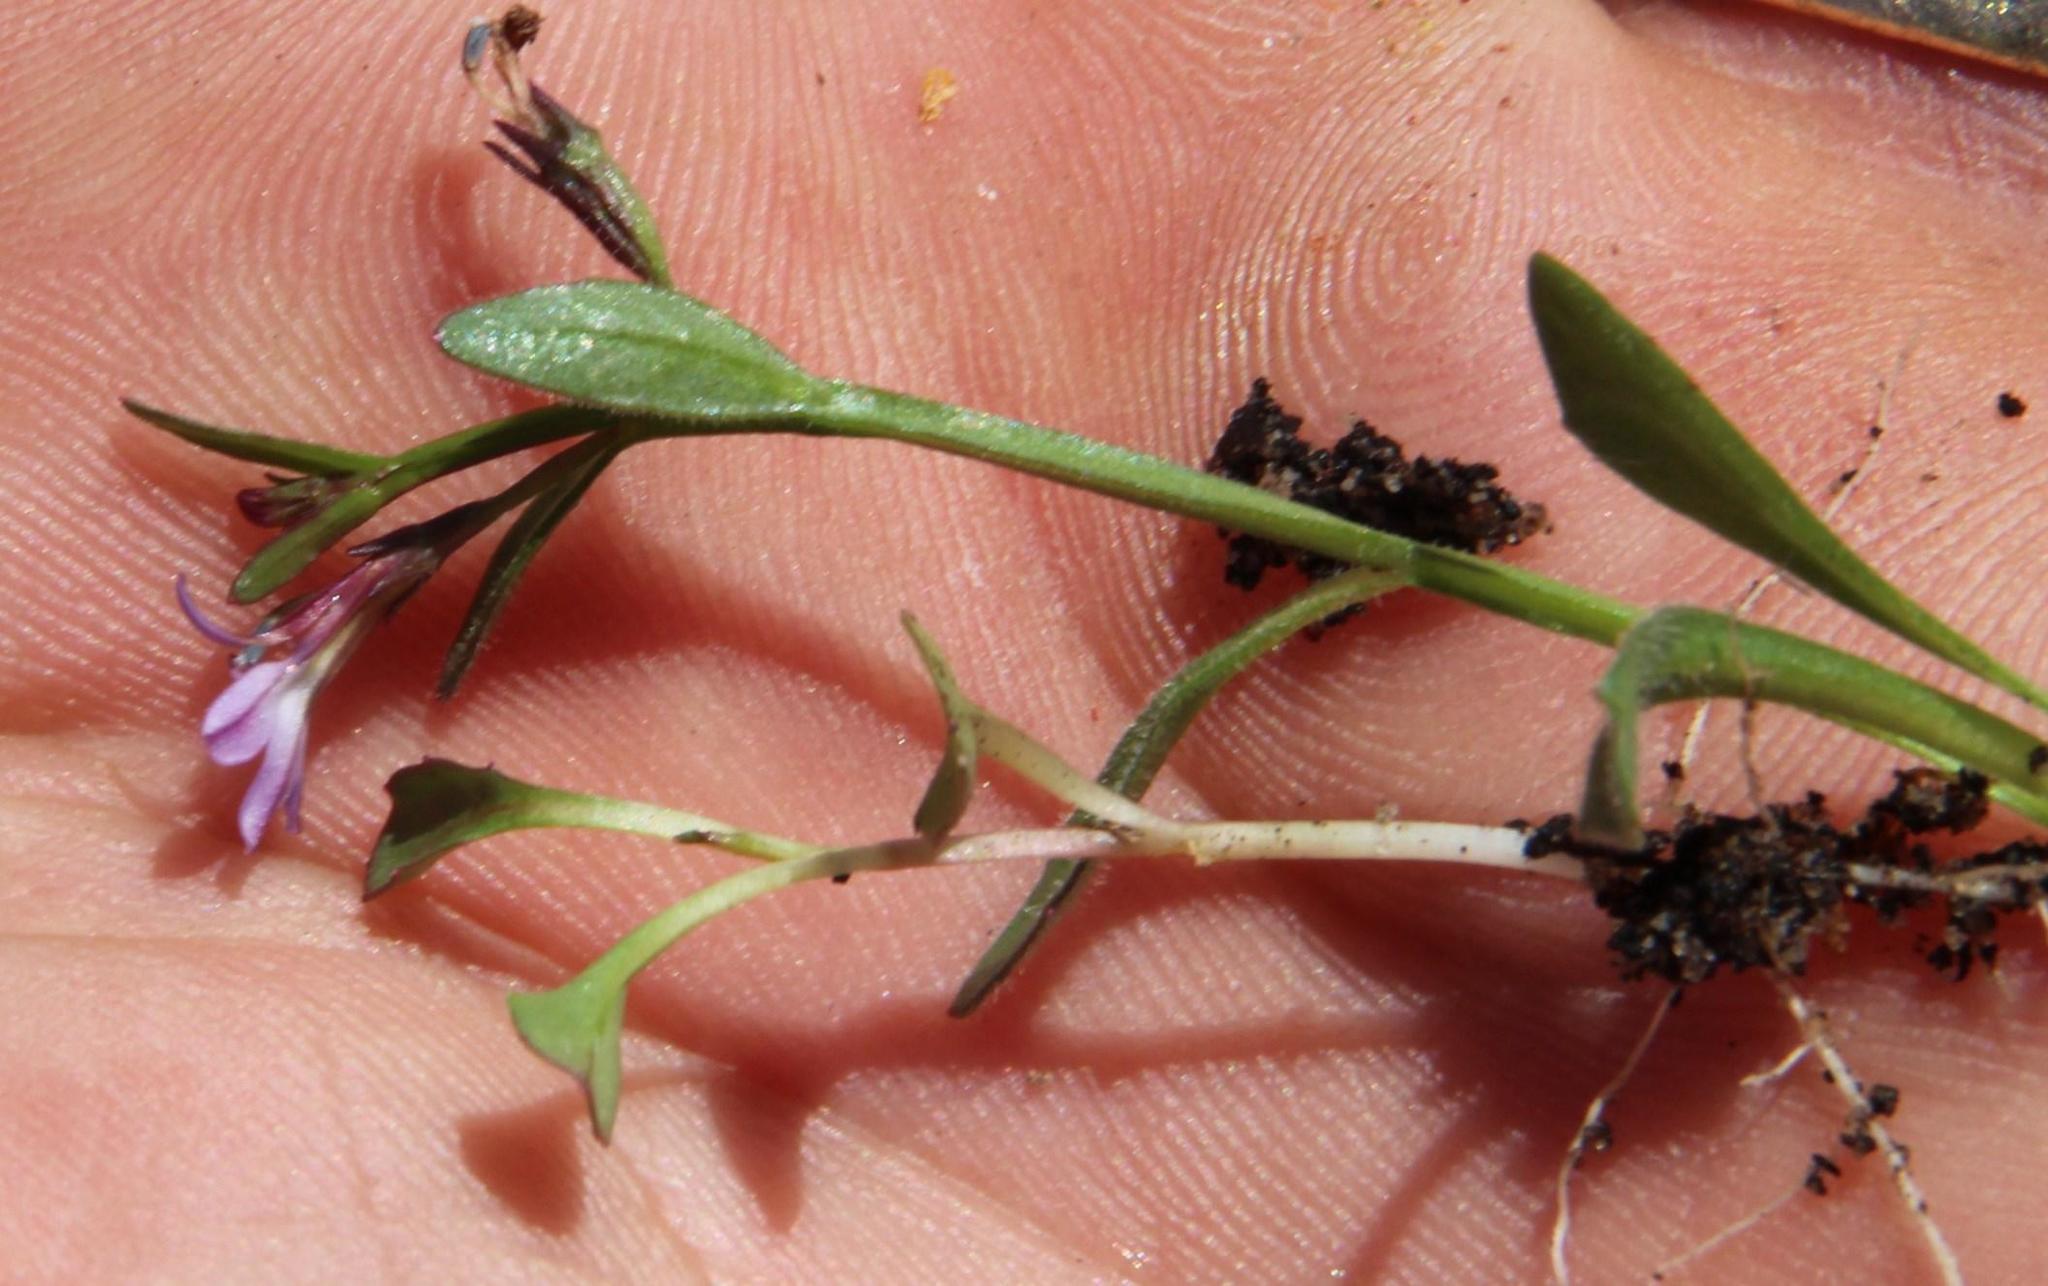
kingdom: Plantae
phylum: Tracheophyta
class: Magnoliopsida
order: Asterales
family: Campanulaceae
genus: Lobelia
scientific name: Lobelia anceps
